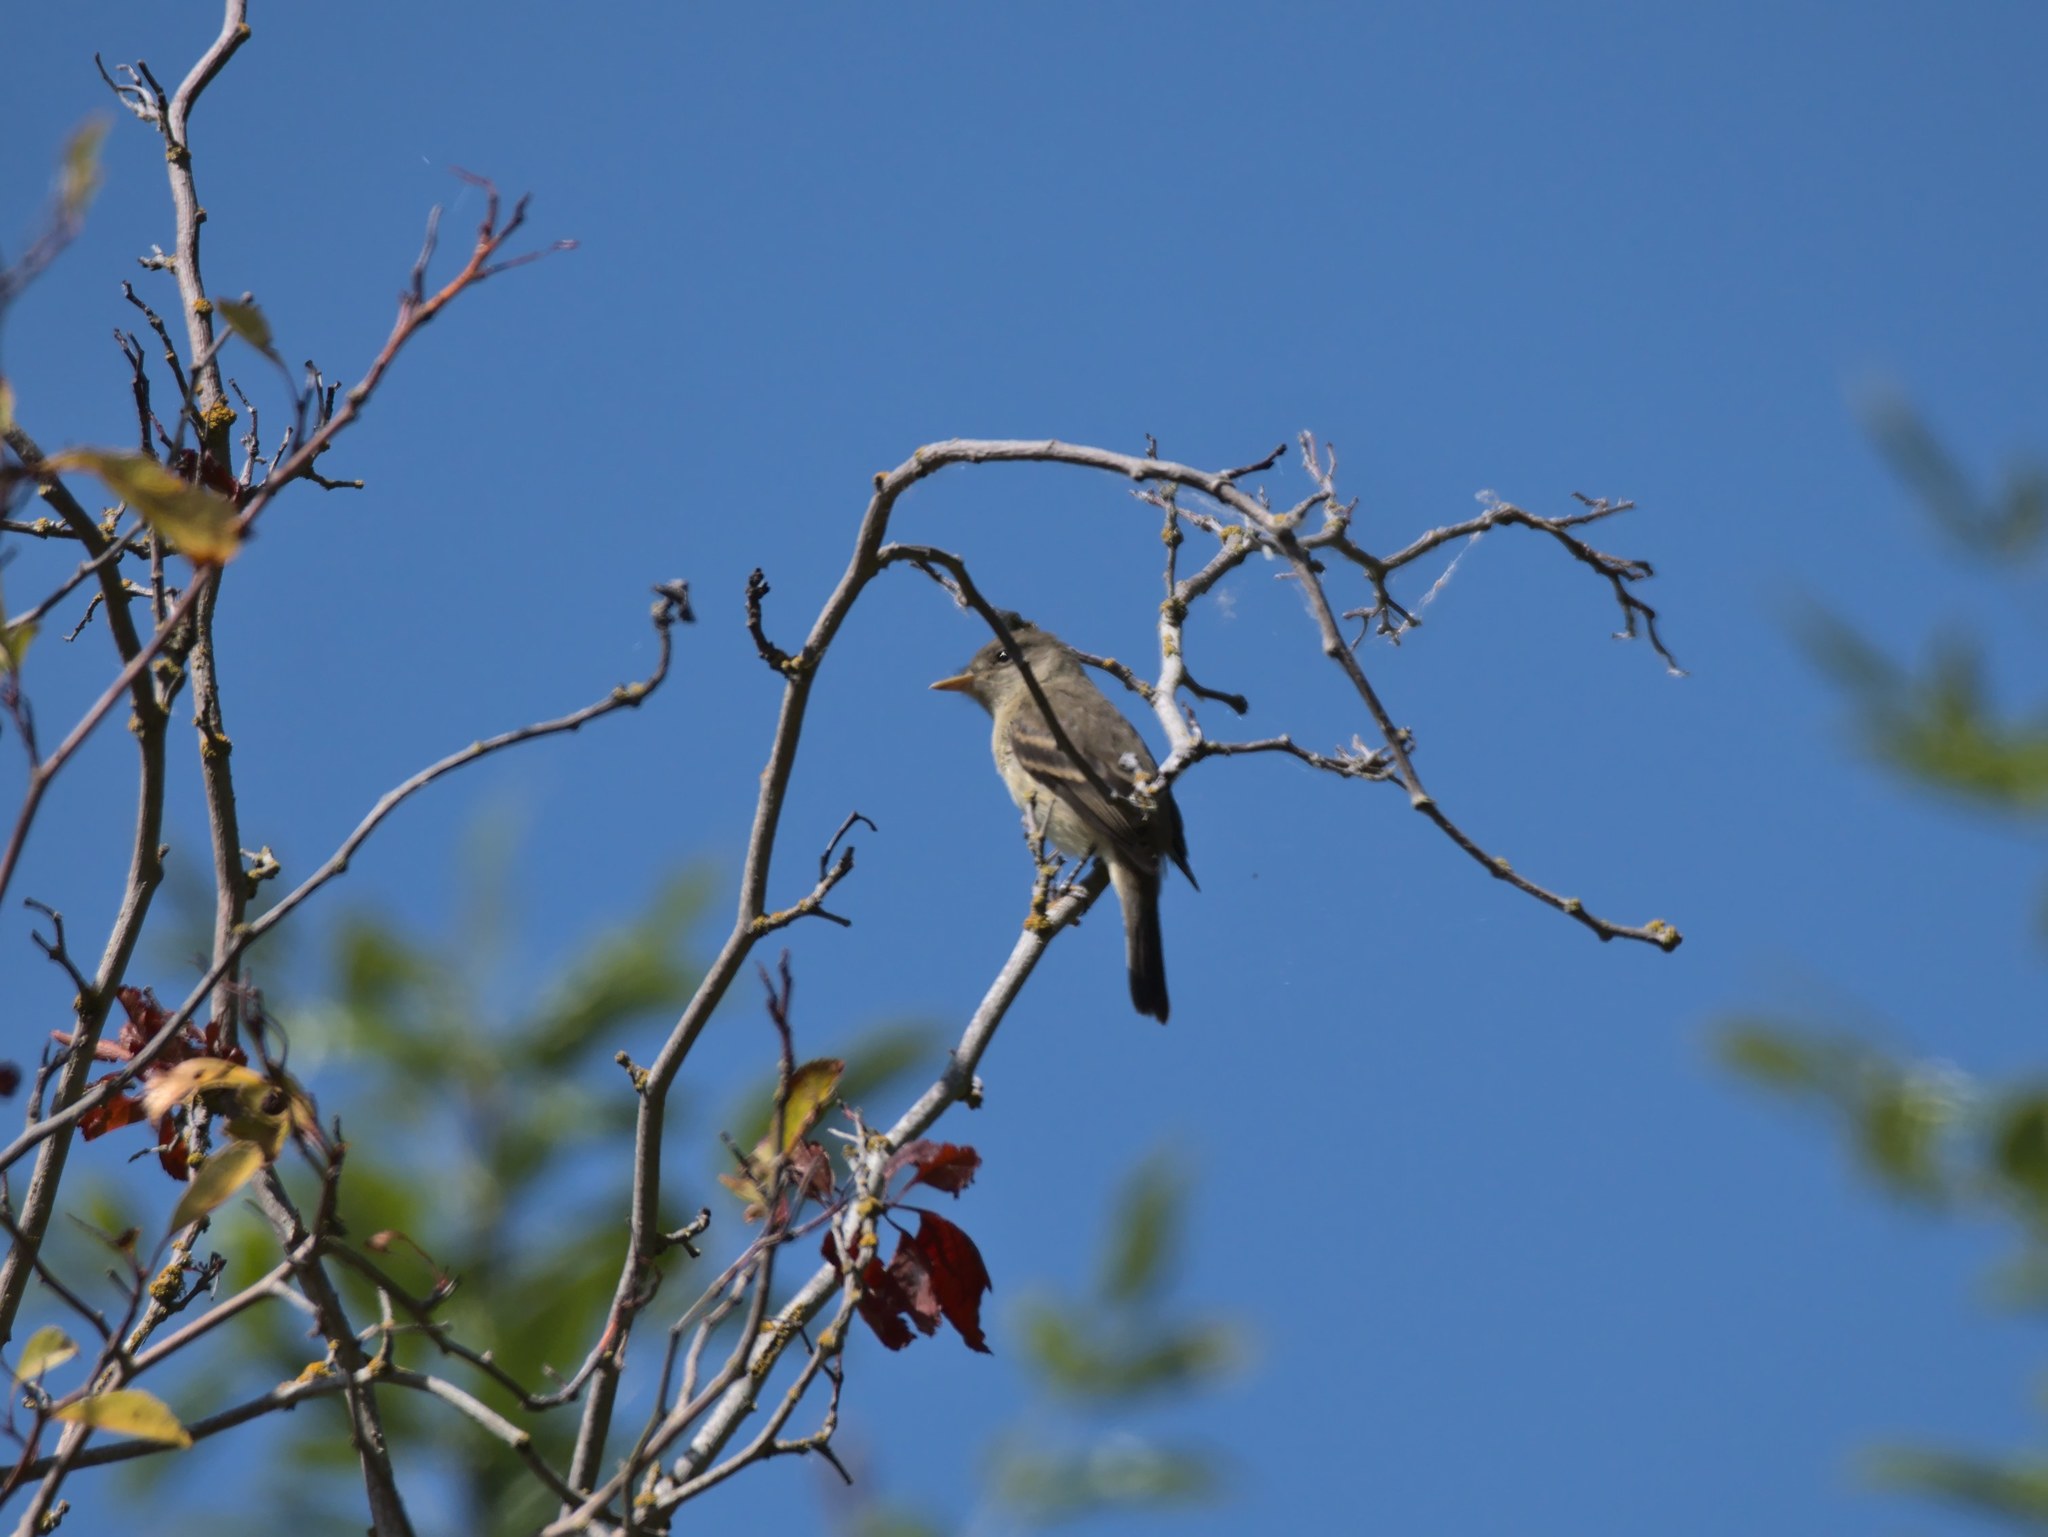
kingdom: Animalia
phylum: Chordata
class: Aves
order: Passeriformes
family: Tyrannidae
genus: Contopus
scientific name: Contopus sordidulus
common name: Western wood-pewee
